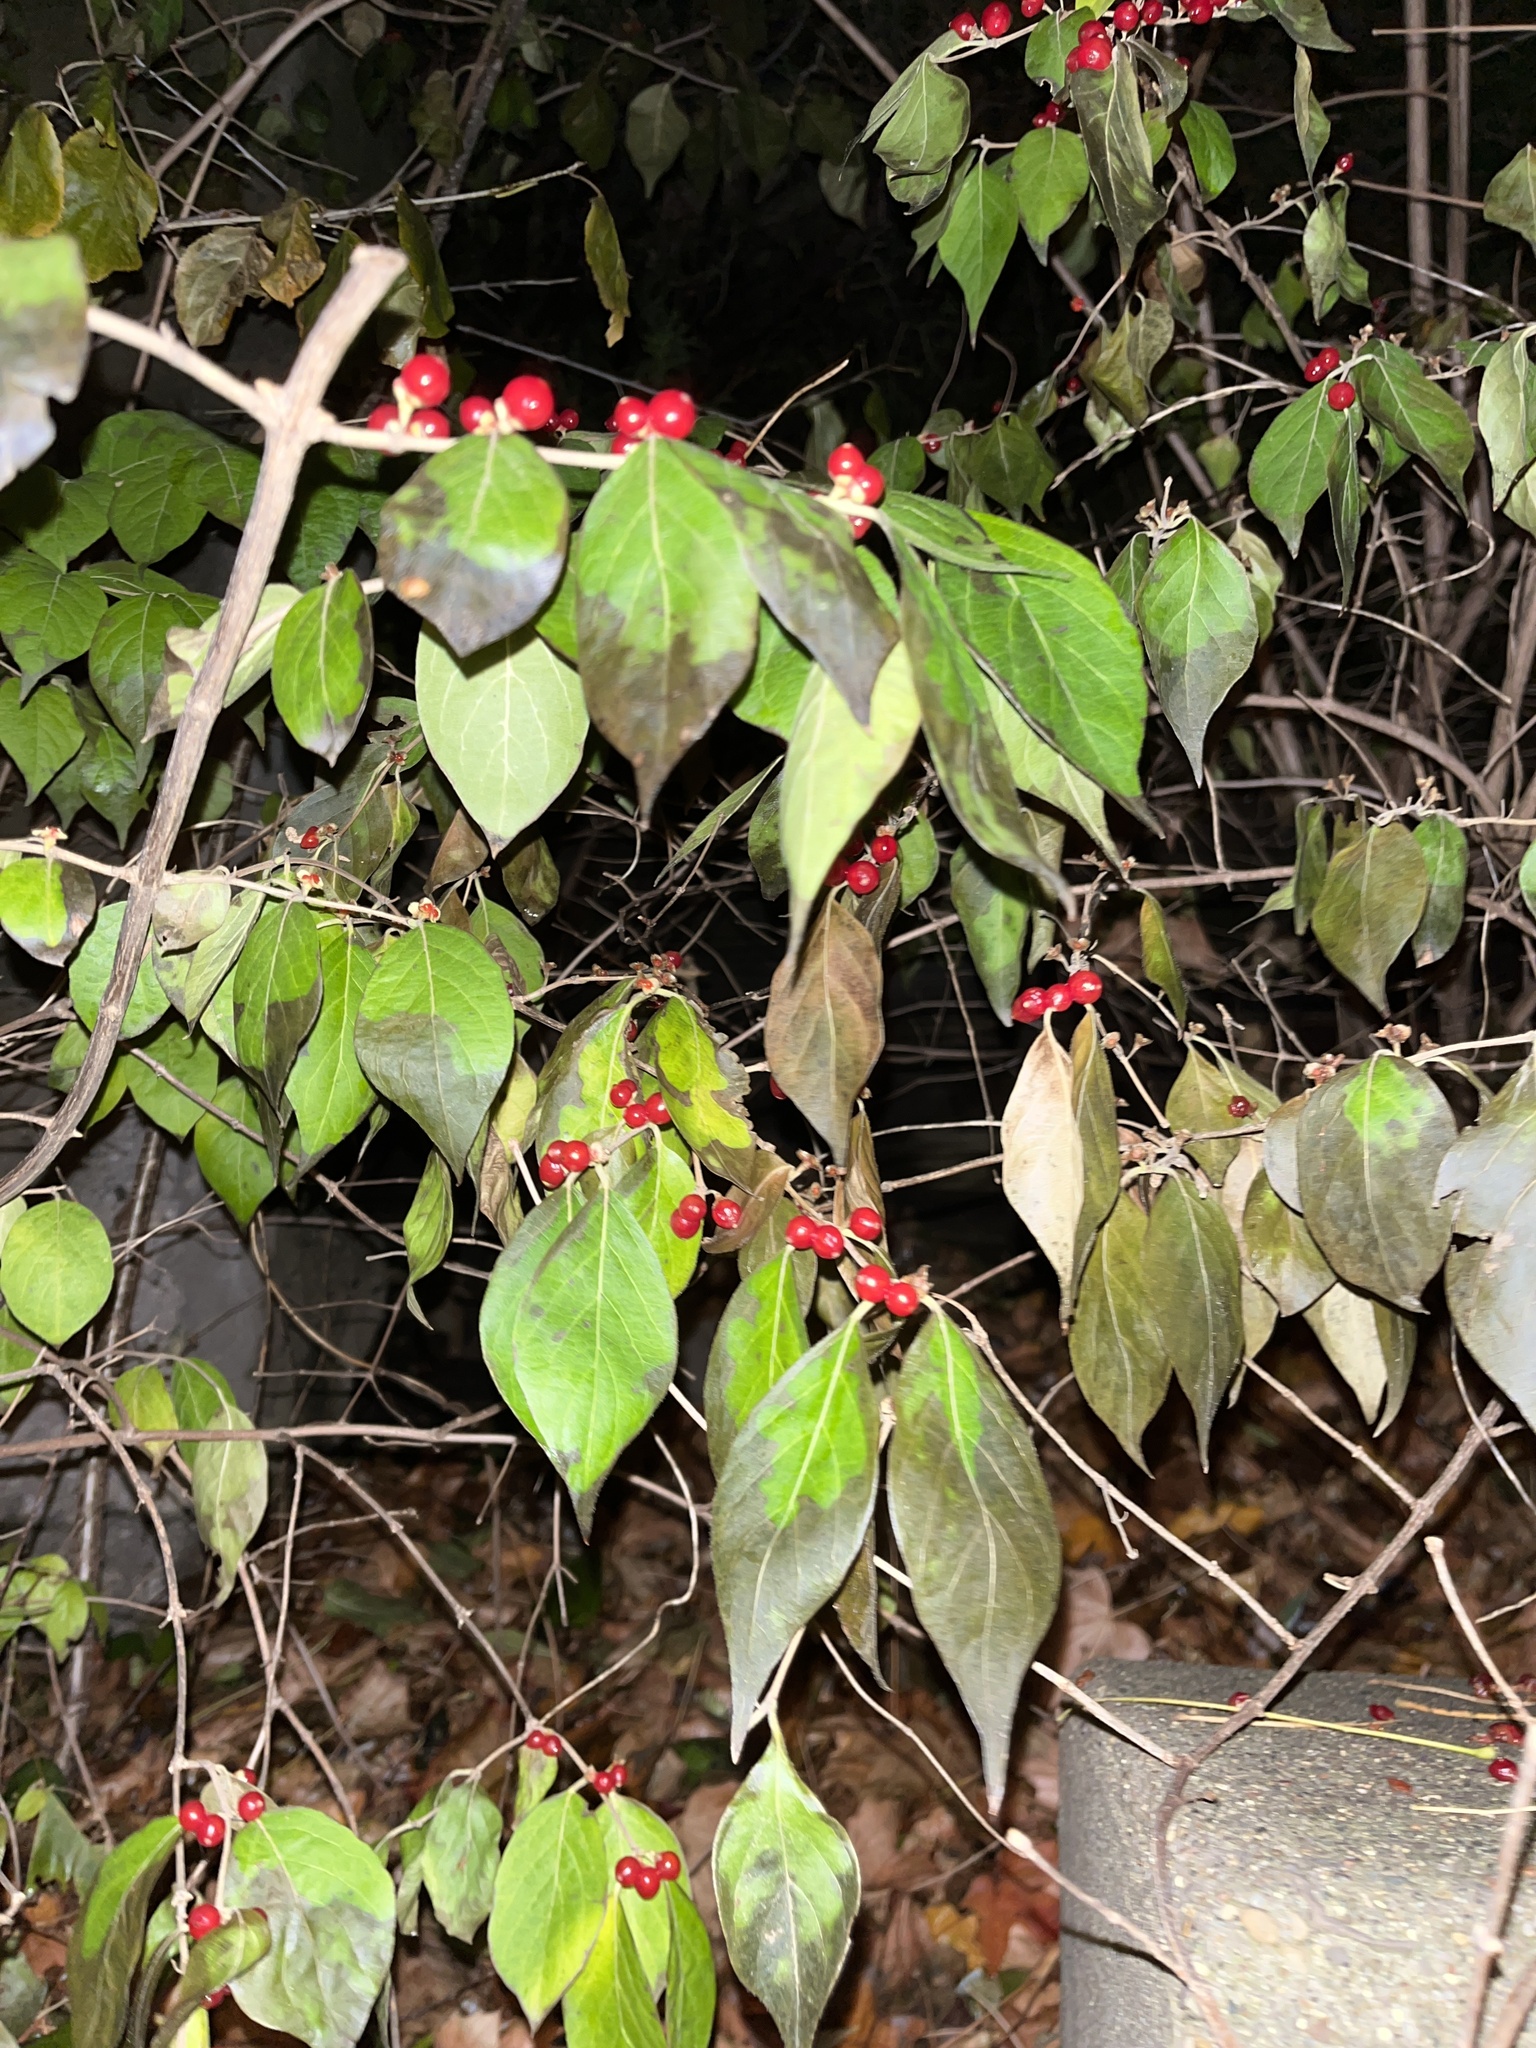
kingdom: Plantae
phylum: Tracheophyta
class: Magnoliopsida
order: Dipsacales
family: Caprifoliaceae
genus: Lonicera
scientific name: Lonicera maackii
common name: Amur honeysuckle
